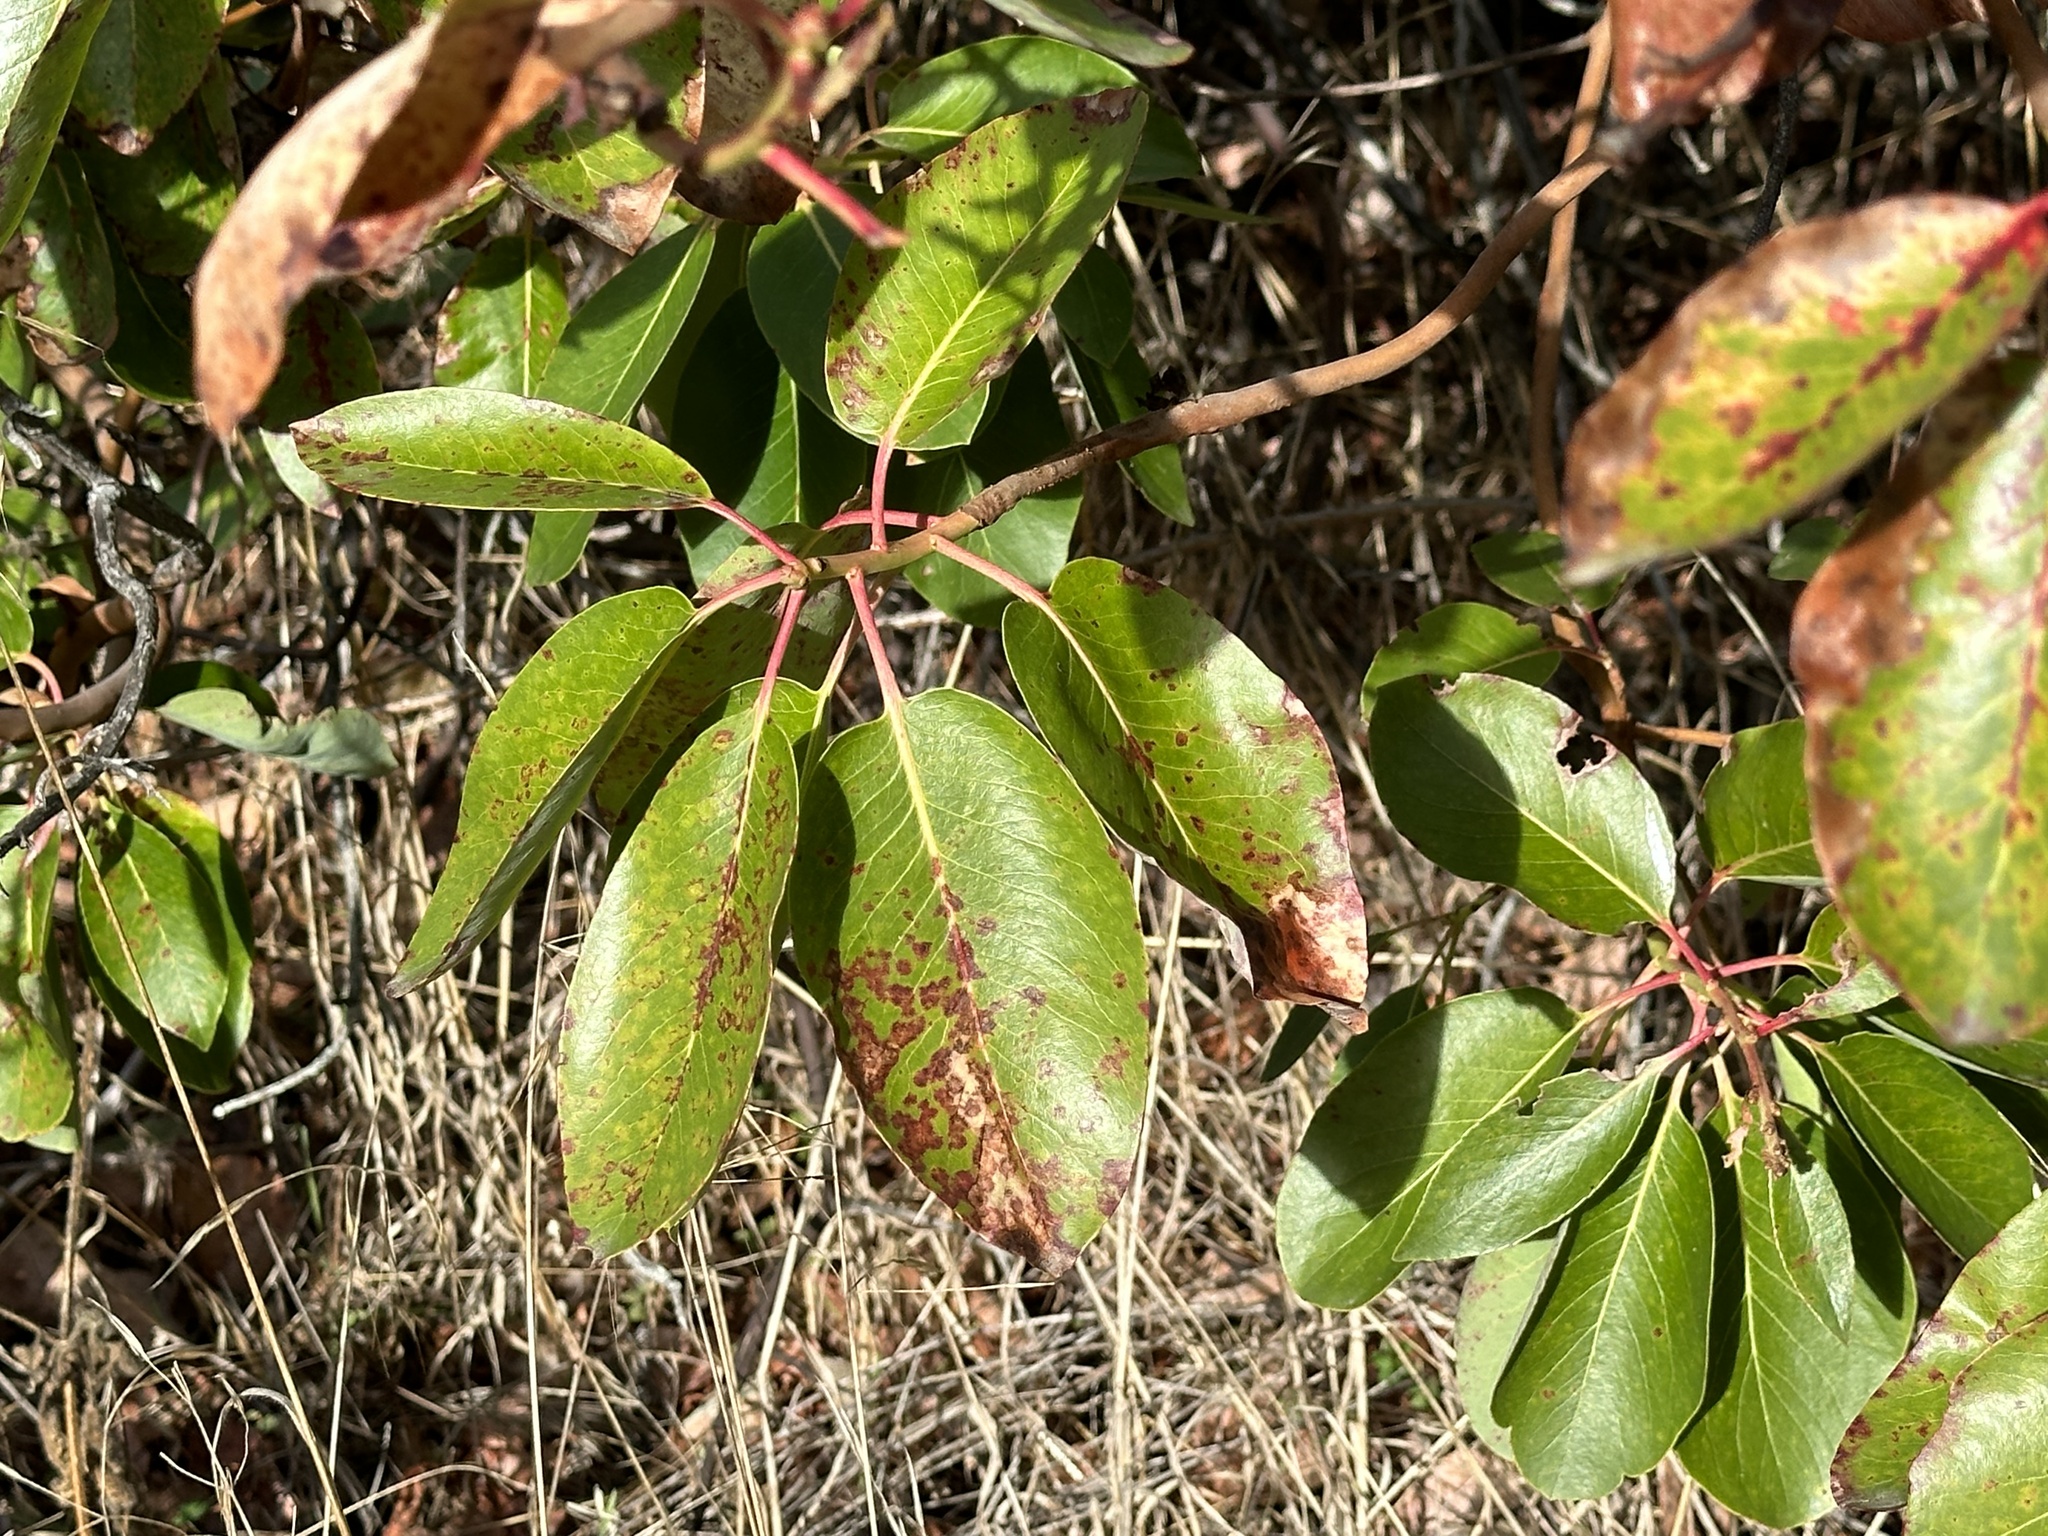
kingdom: Plantae
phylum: Tracheophyta
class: Magnoliopsida
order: Ericales
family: Ericaceae
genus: Arbutus
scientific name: Arbutus menziesii
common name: Pacific madrone
